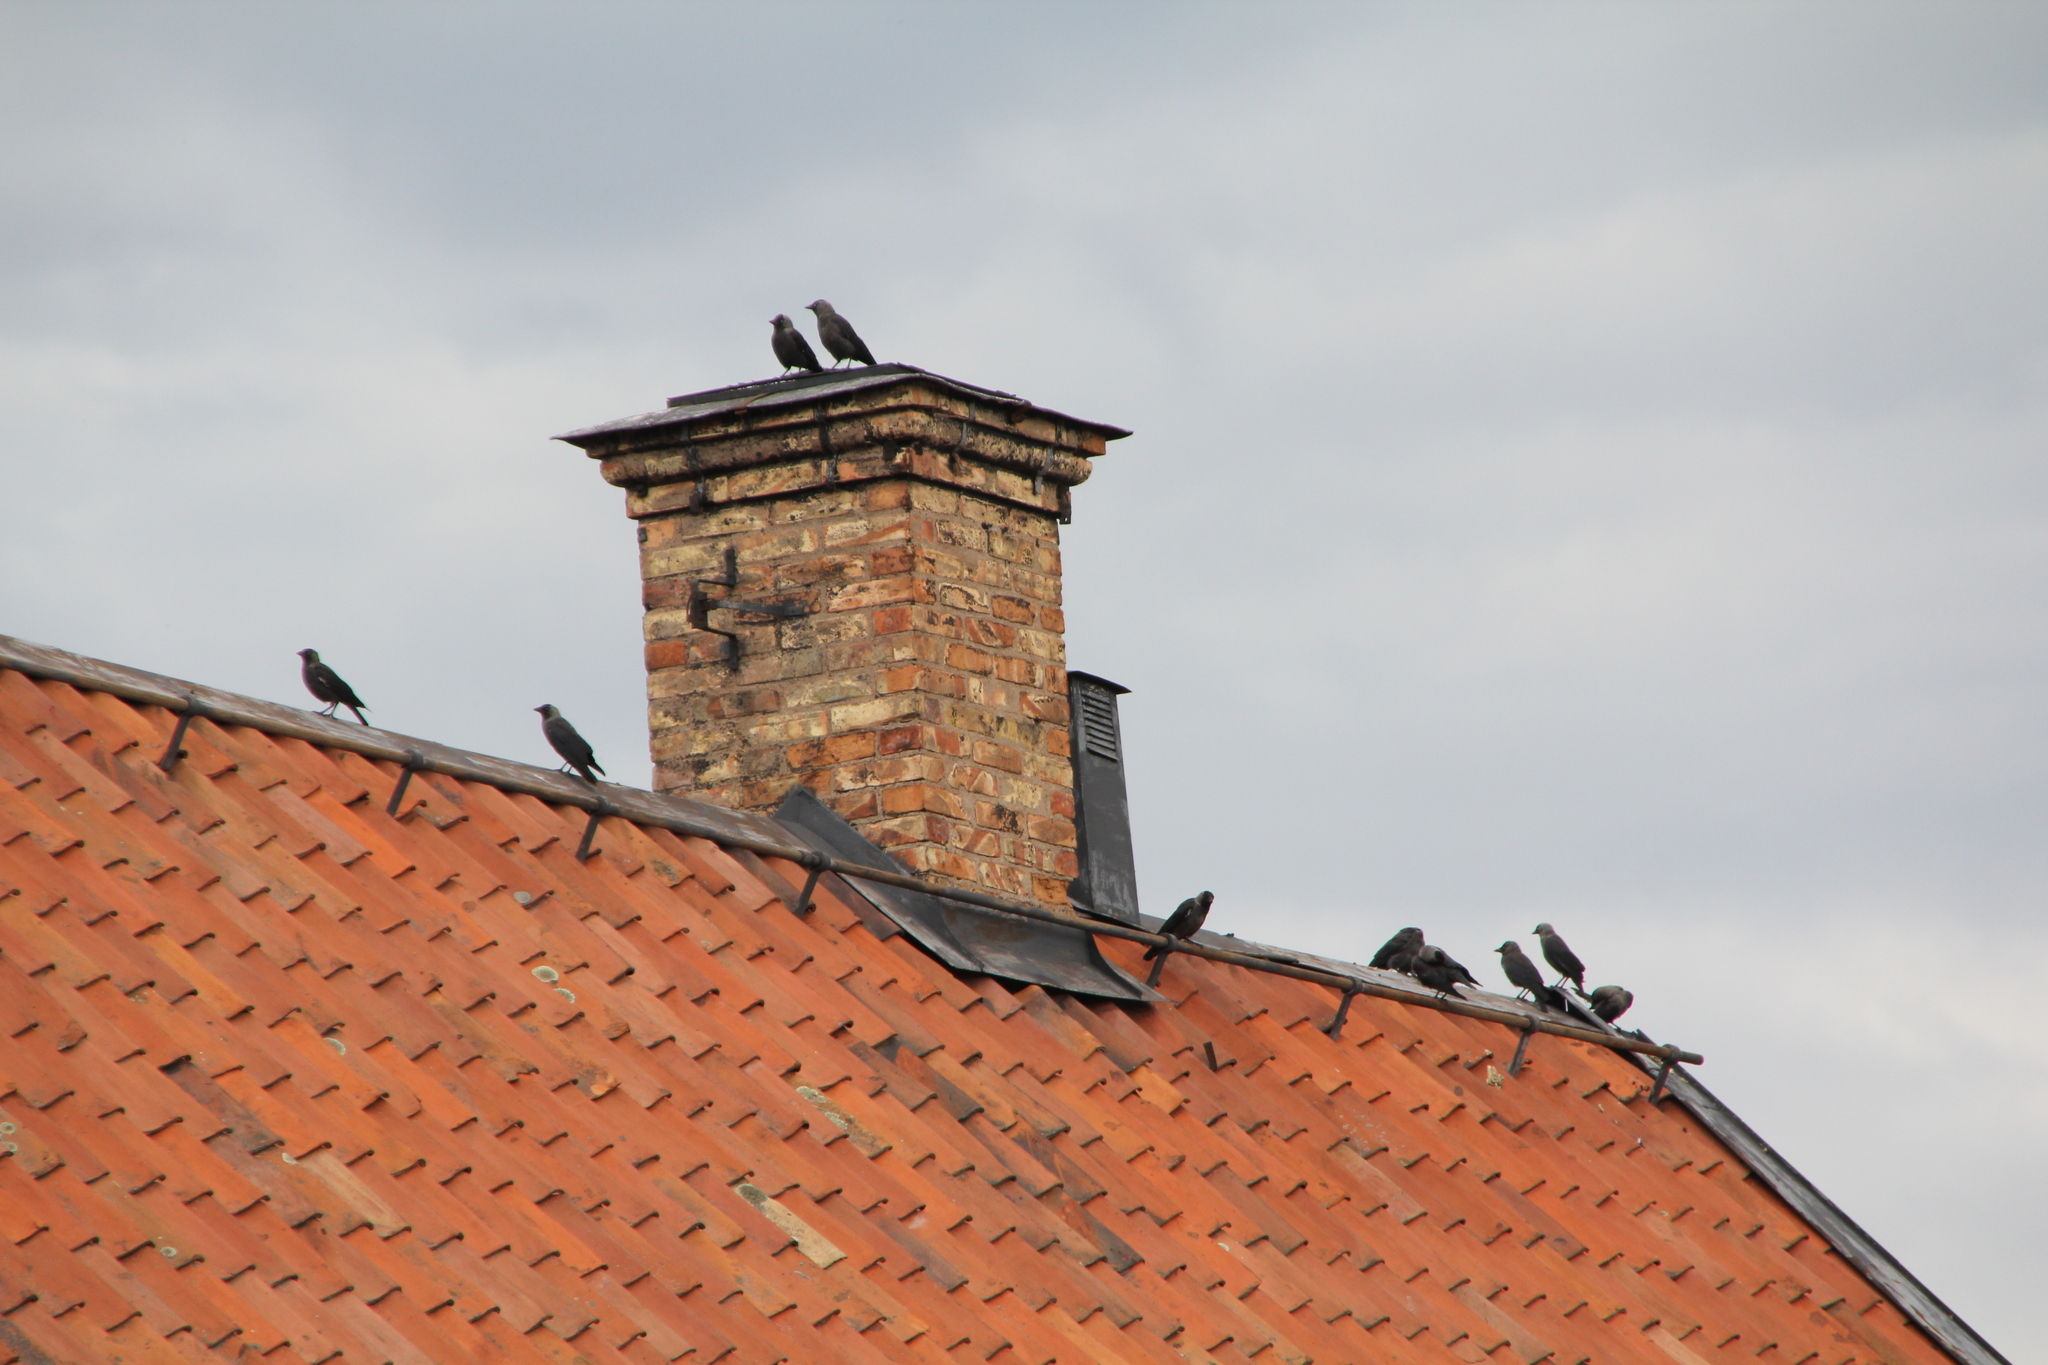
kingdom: Animalia
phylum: Chordata
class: Aves
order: Passeriformes
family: Corvidae
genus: Coloeus
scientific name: Coloeus monedula
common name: Western jackdaw
